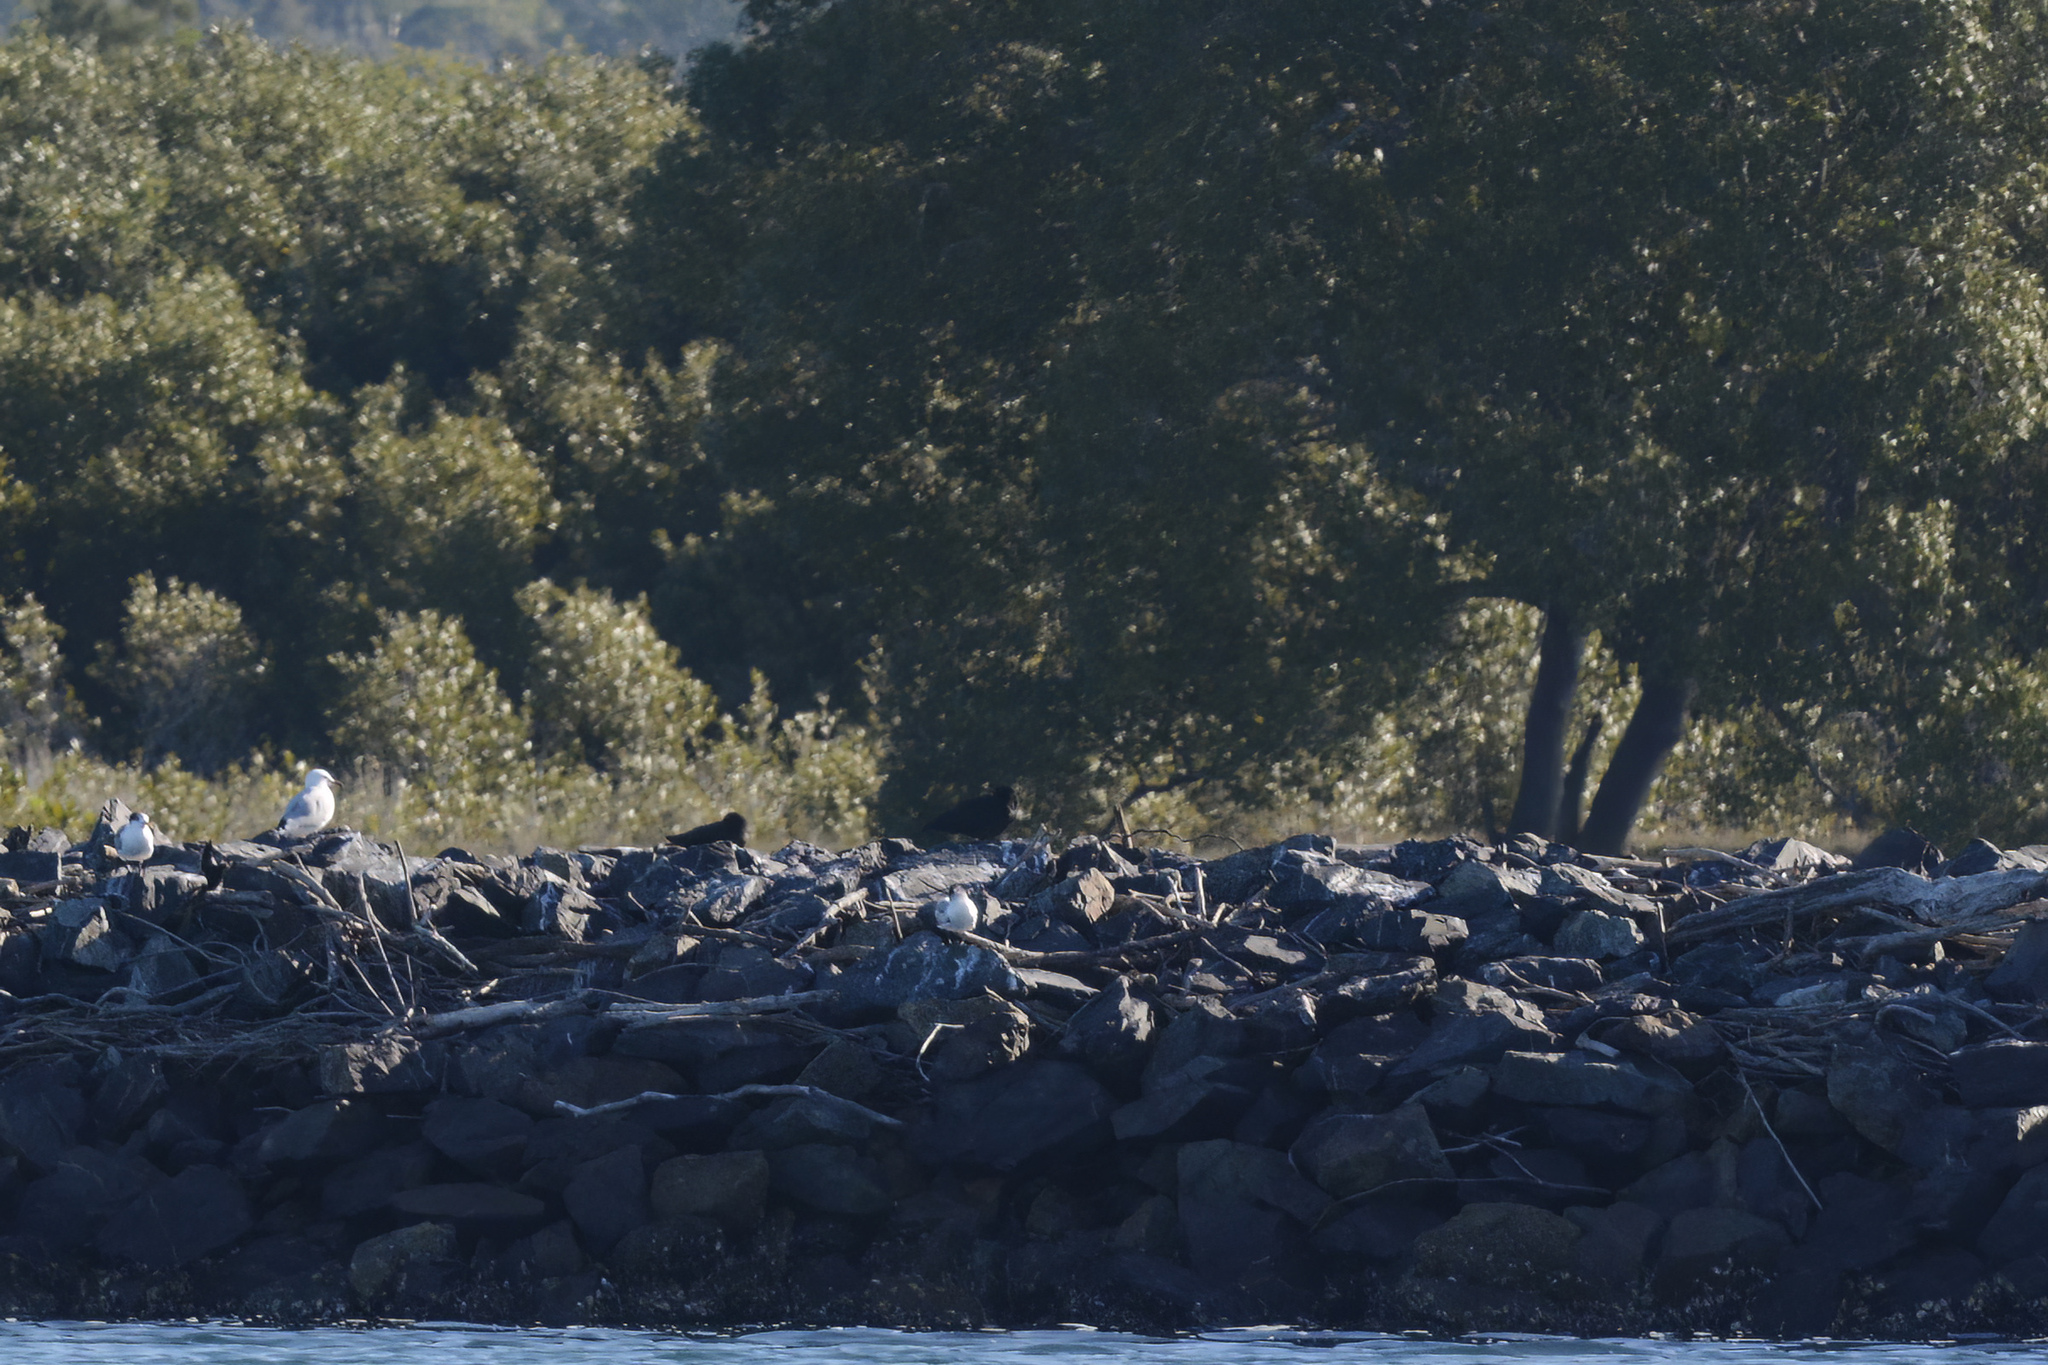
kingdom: Animalia
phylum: Chordata
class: Aves
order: Charadriiformes
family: Haematopodidae
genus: Haematopus
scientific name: Haematopus fuliginosus
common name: Sooty oystercatcher
